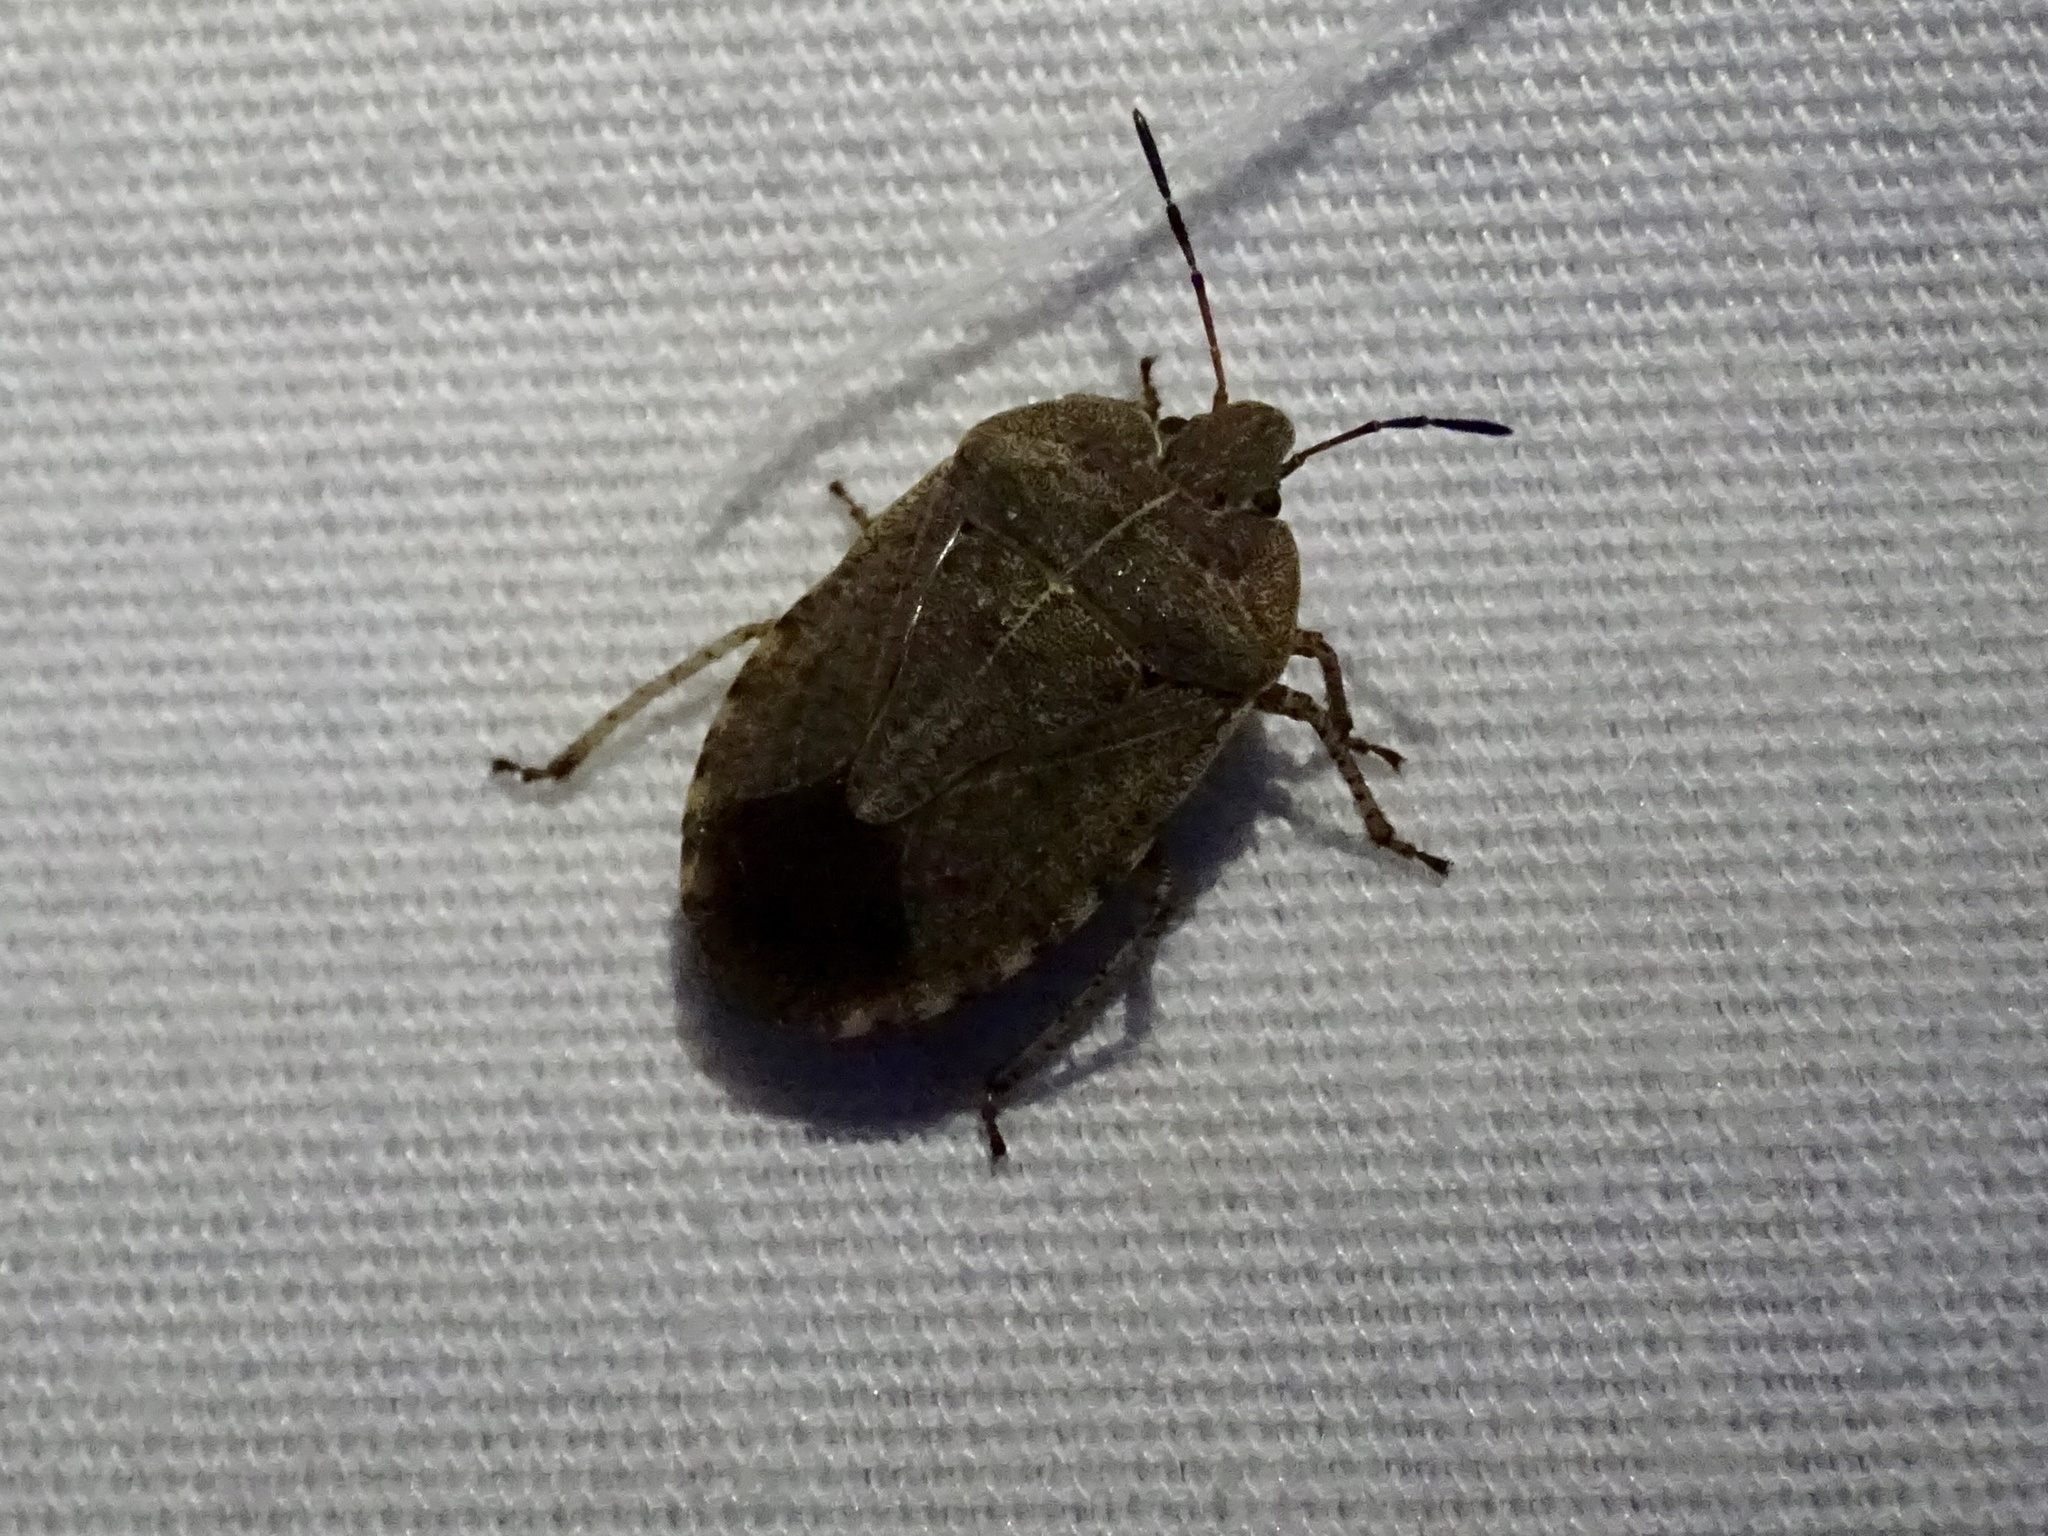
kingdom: Animalia
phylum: Arthropoda
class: Insecta
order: Hemiptera
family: Pentatomidae
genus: Menecles
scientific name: Menecles insertus
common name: Elf shoe stink bug
